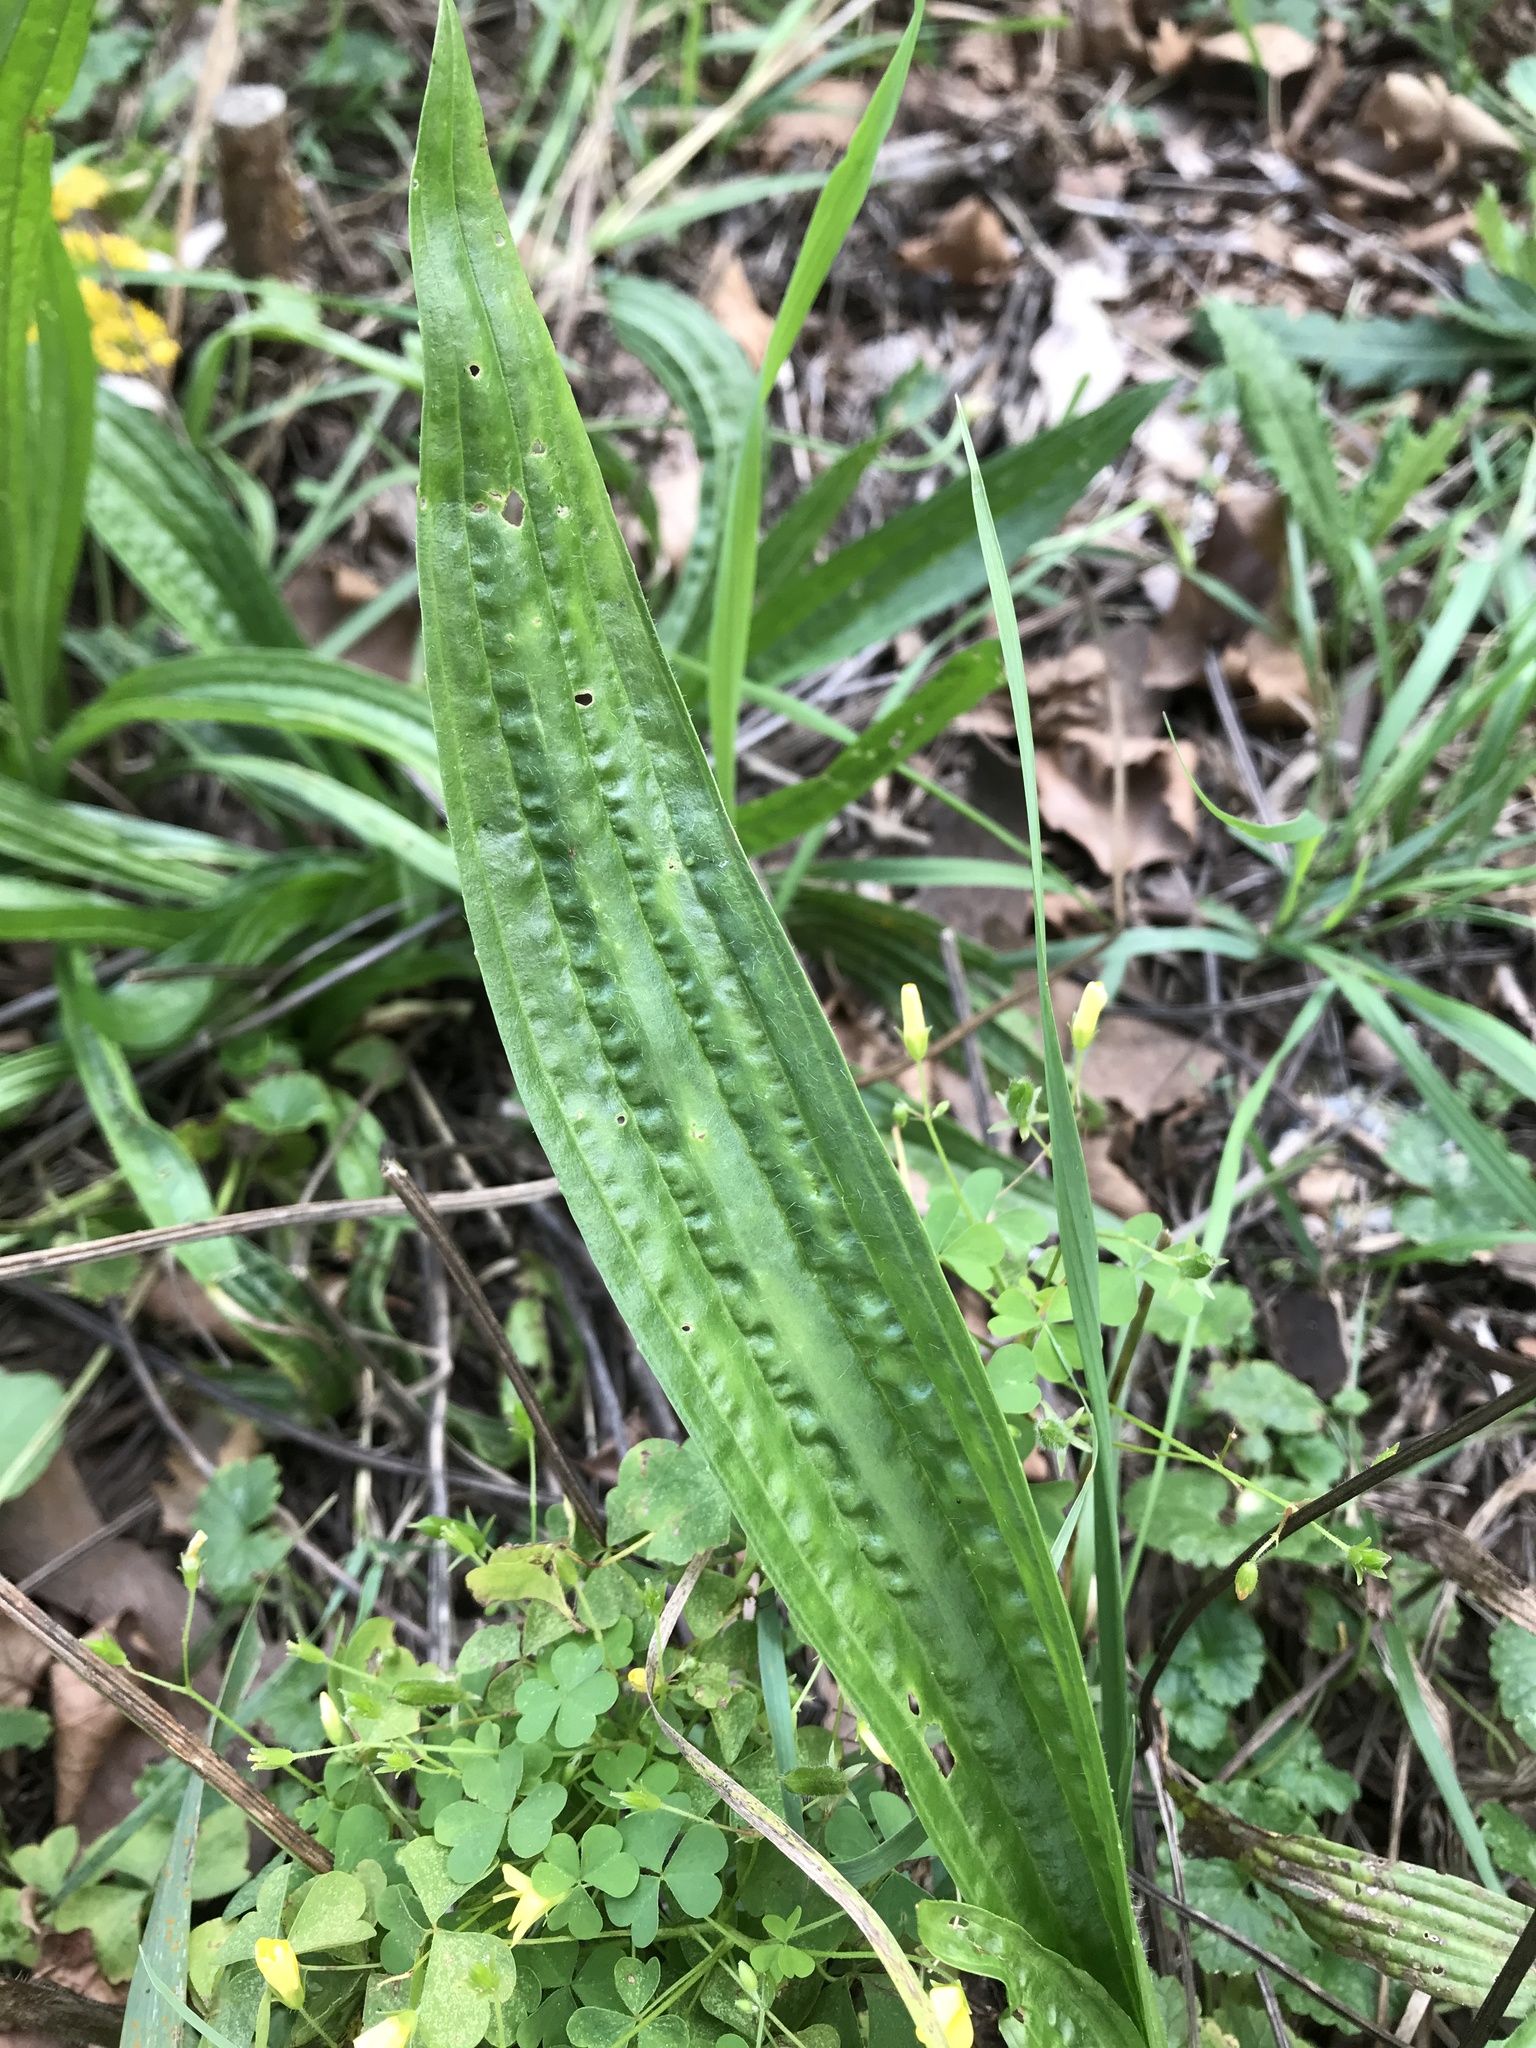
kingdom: Plantae
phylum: Tracheophyta
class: Magnoliopsida
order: Lamiales
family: Plantaginaceae
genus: Plantago
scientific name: Plantago lanceolata
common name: Ribwort plantain
